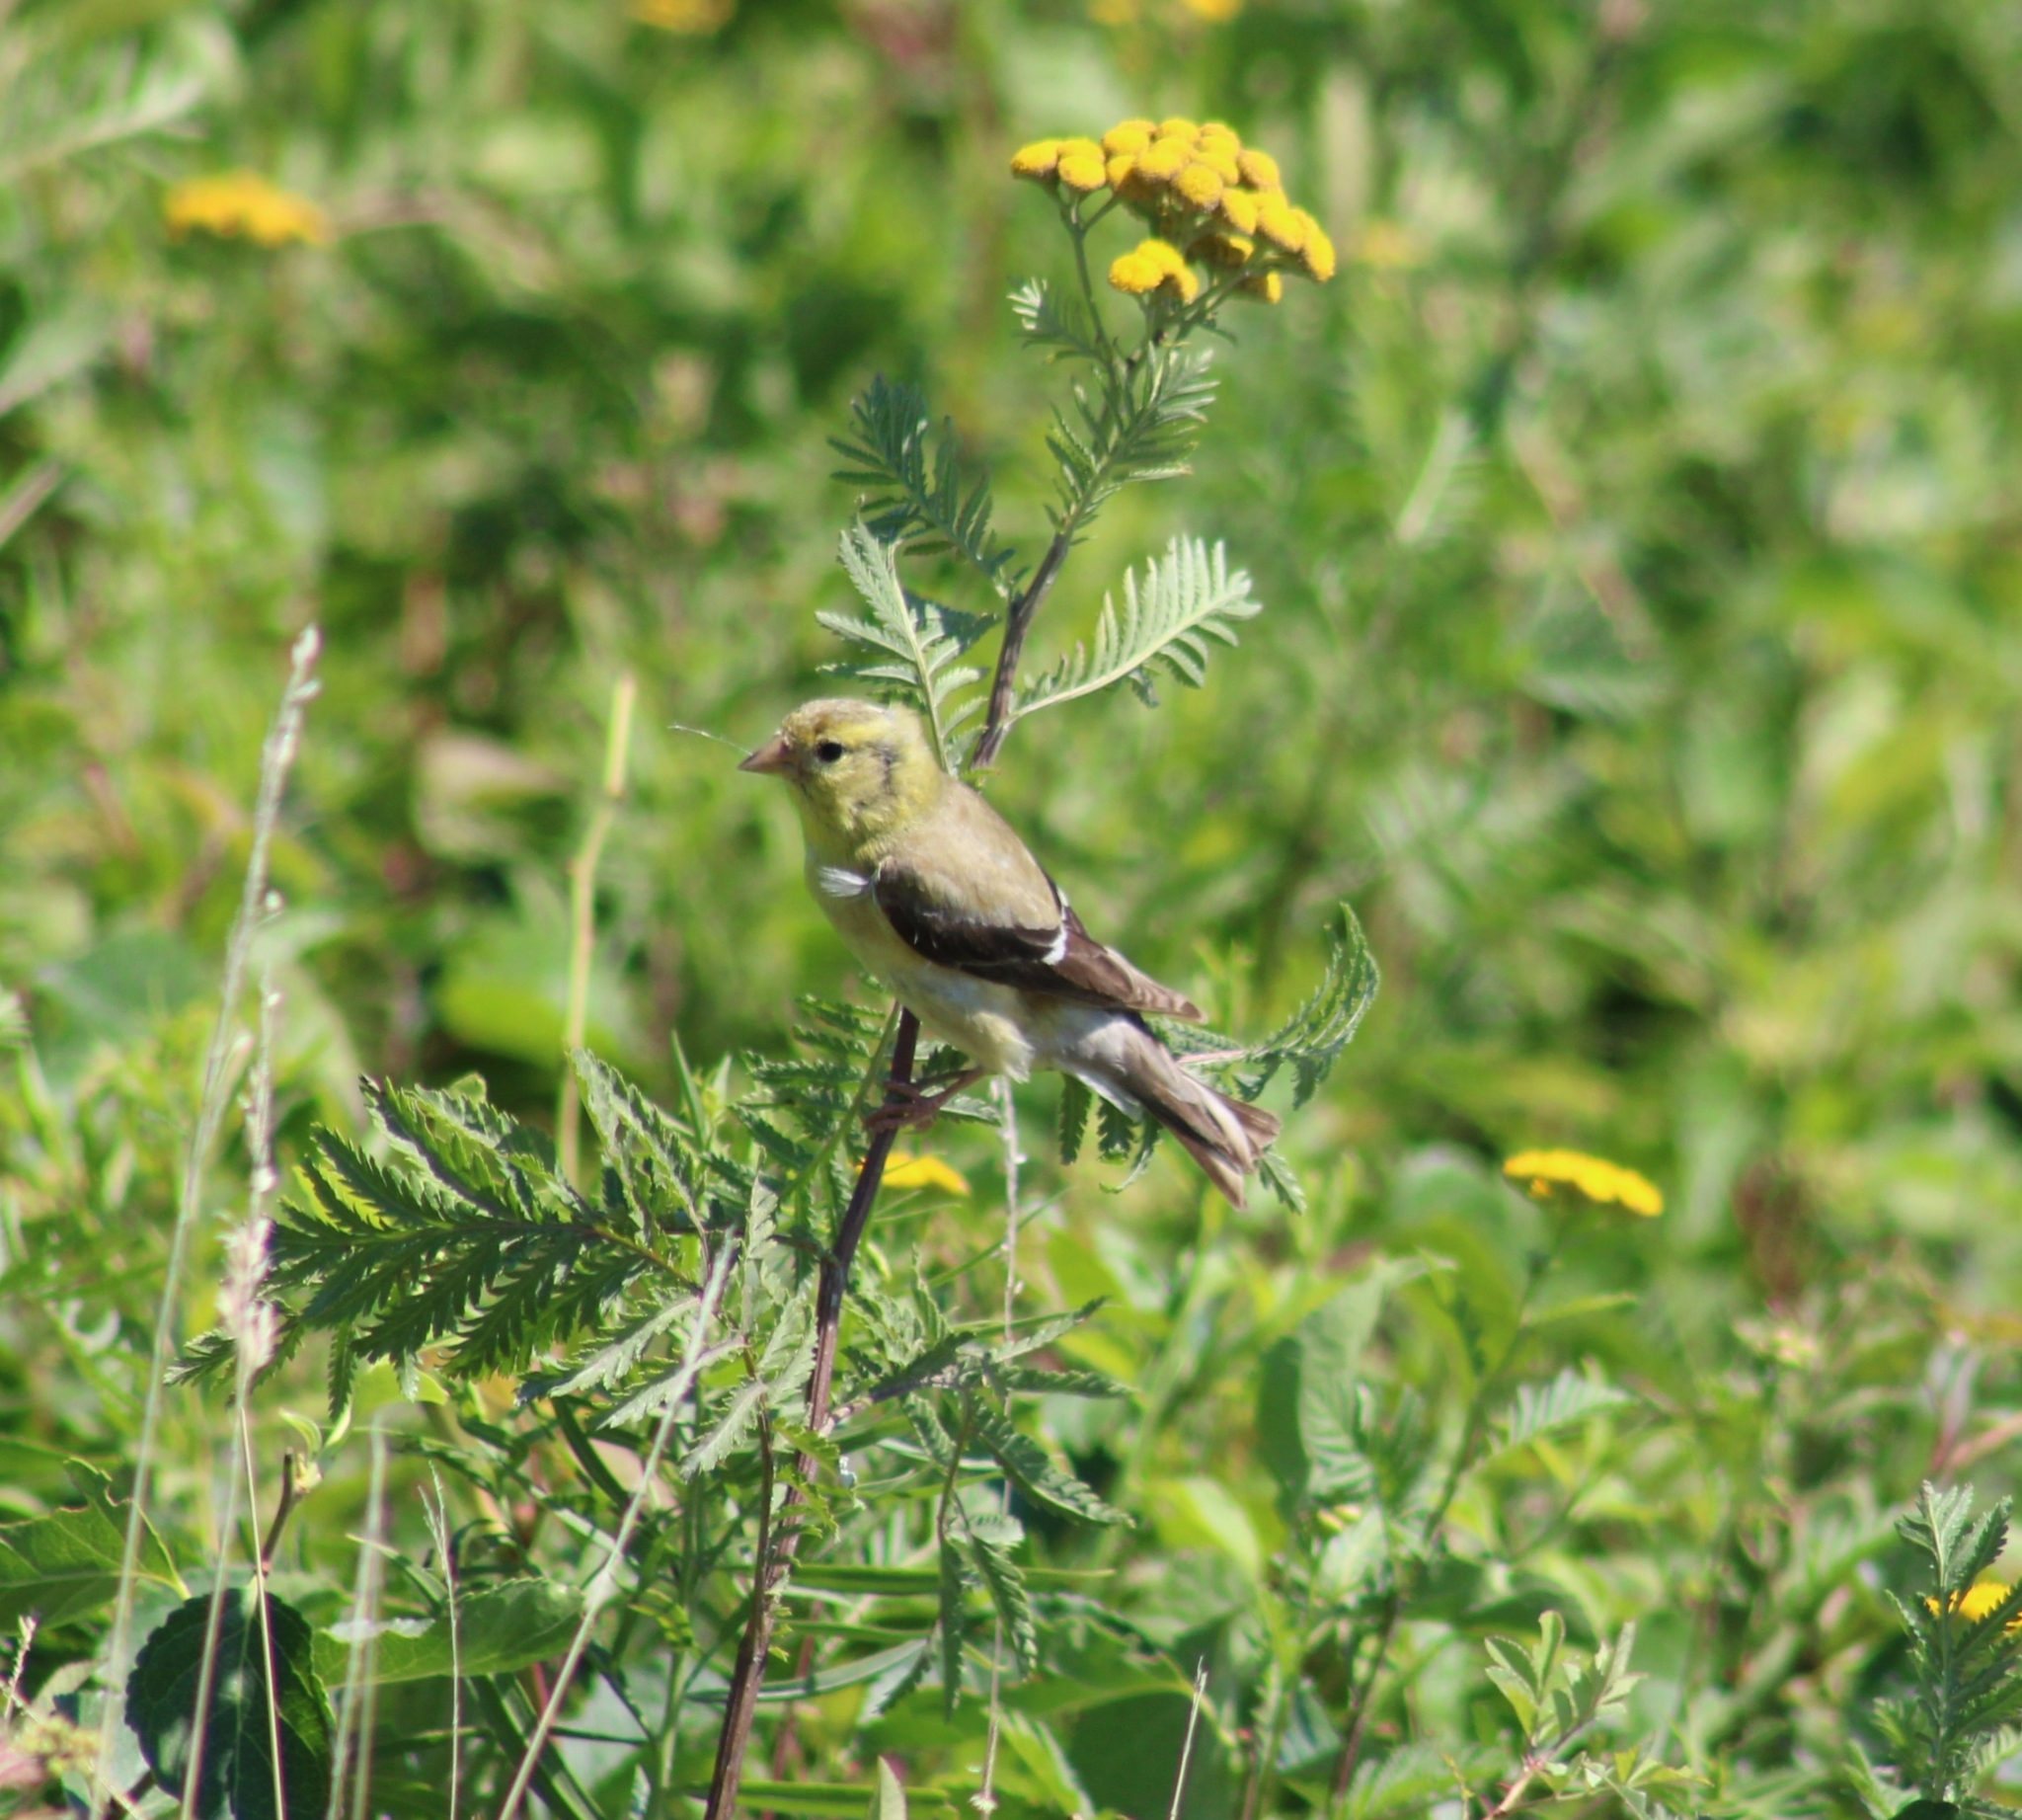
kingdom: Animalia
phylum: Chordata
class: Aves
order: Passeriformes
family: Fringillidae
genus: Spinus
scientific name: Spinus tristis
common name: American goldfinch
